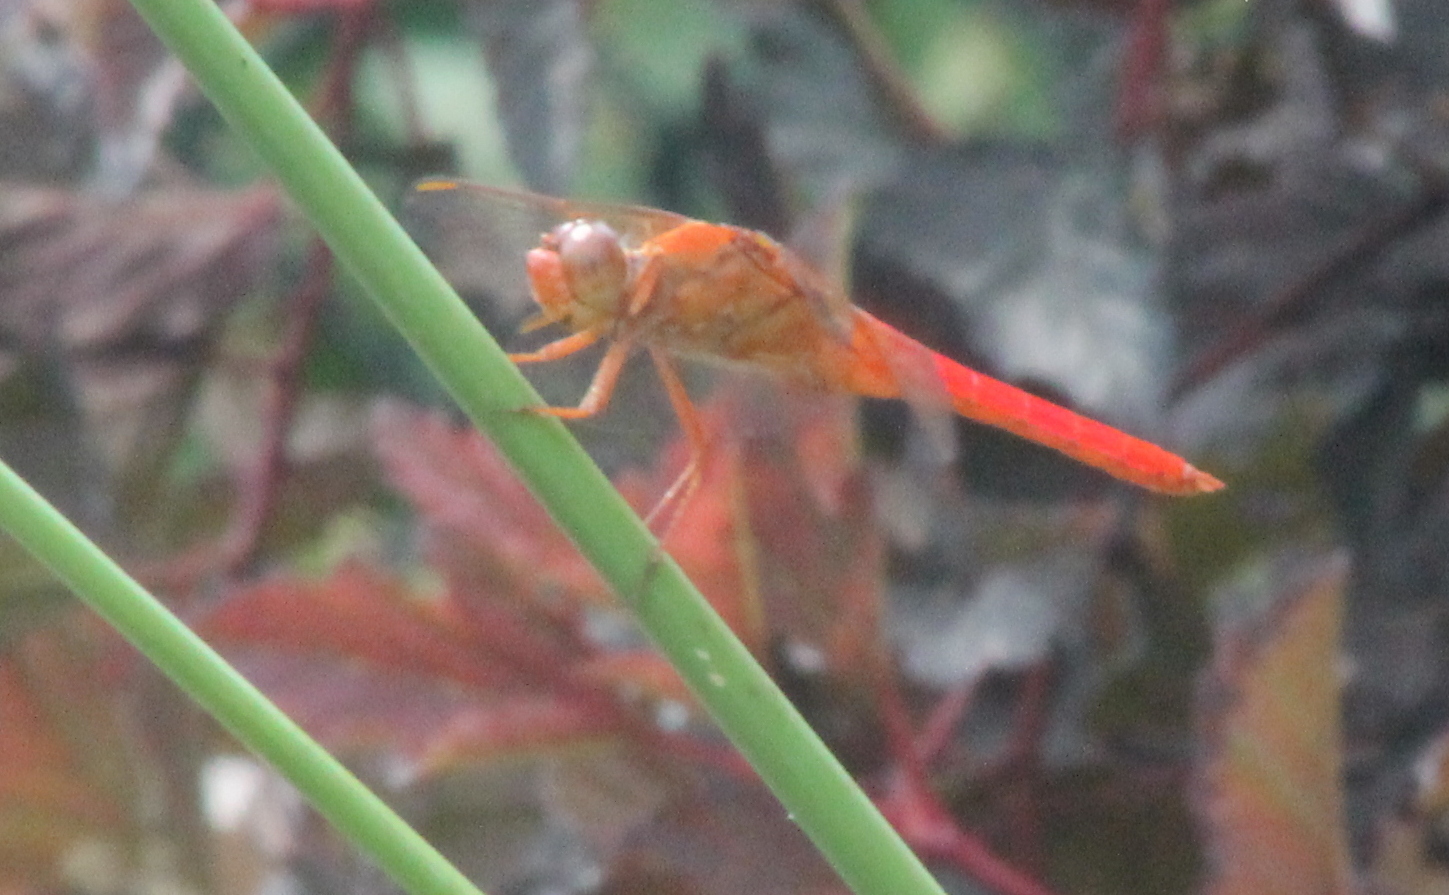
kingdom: Animalia
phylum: Arthropoda
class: Insecta
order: Odonata
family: Libellulidae
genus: Libellula
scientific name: Libellula croceipennis
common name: Neon skimmer
